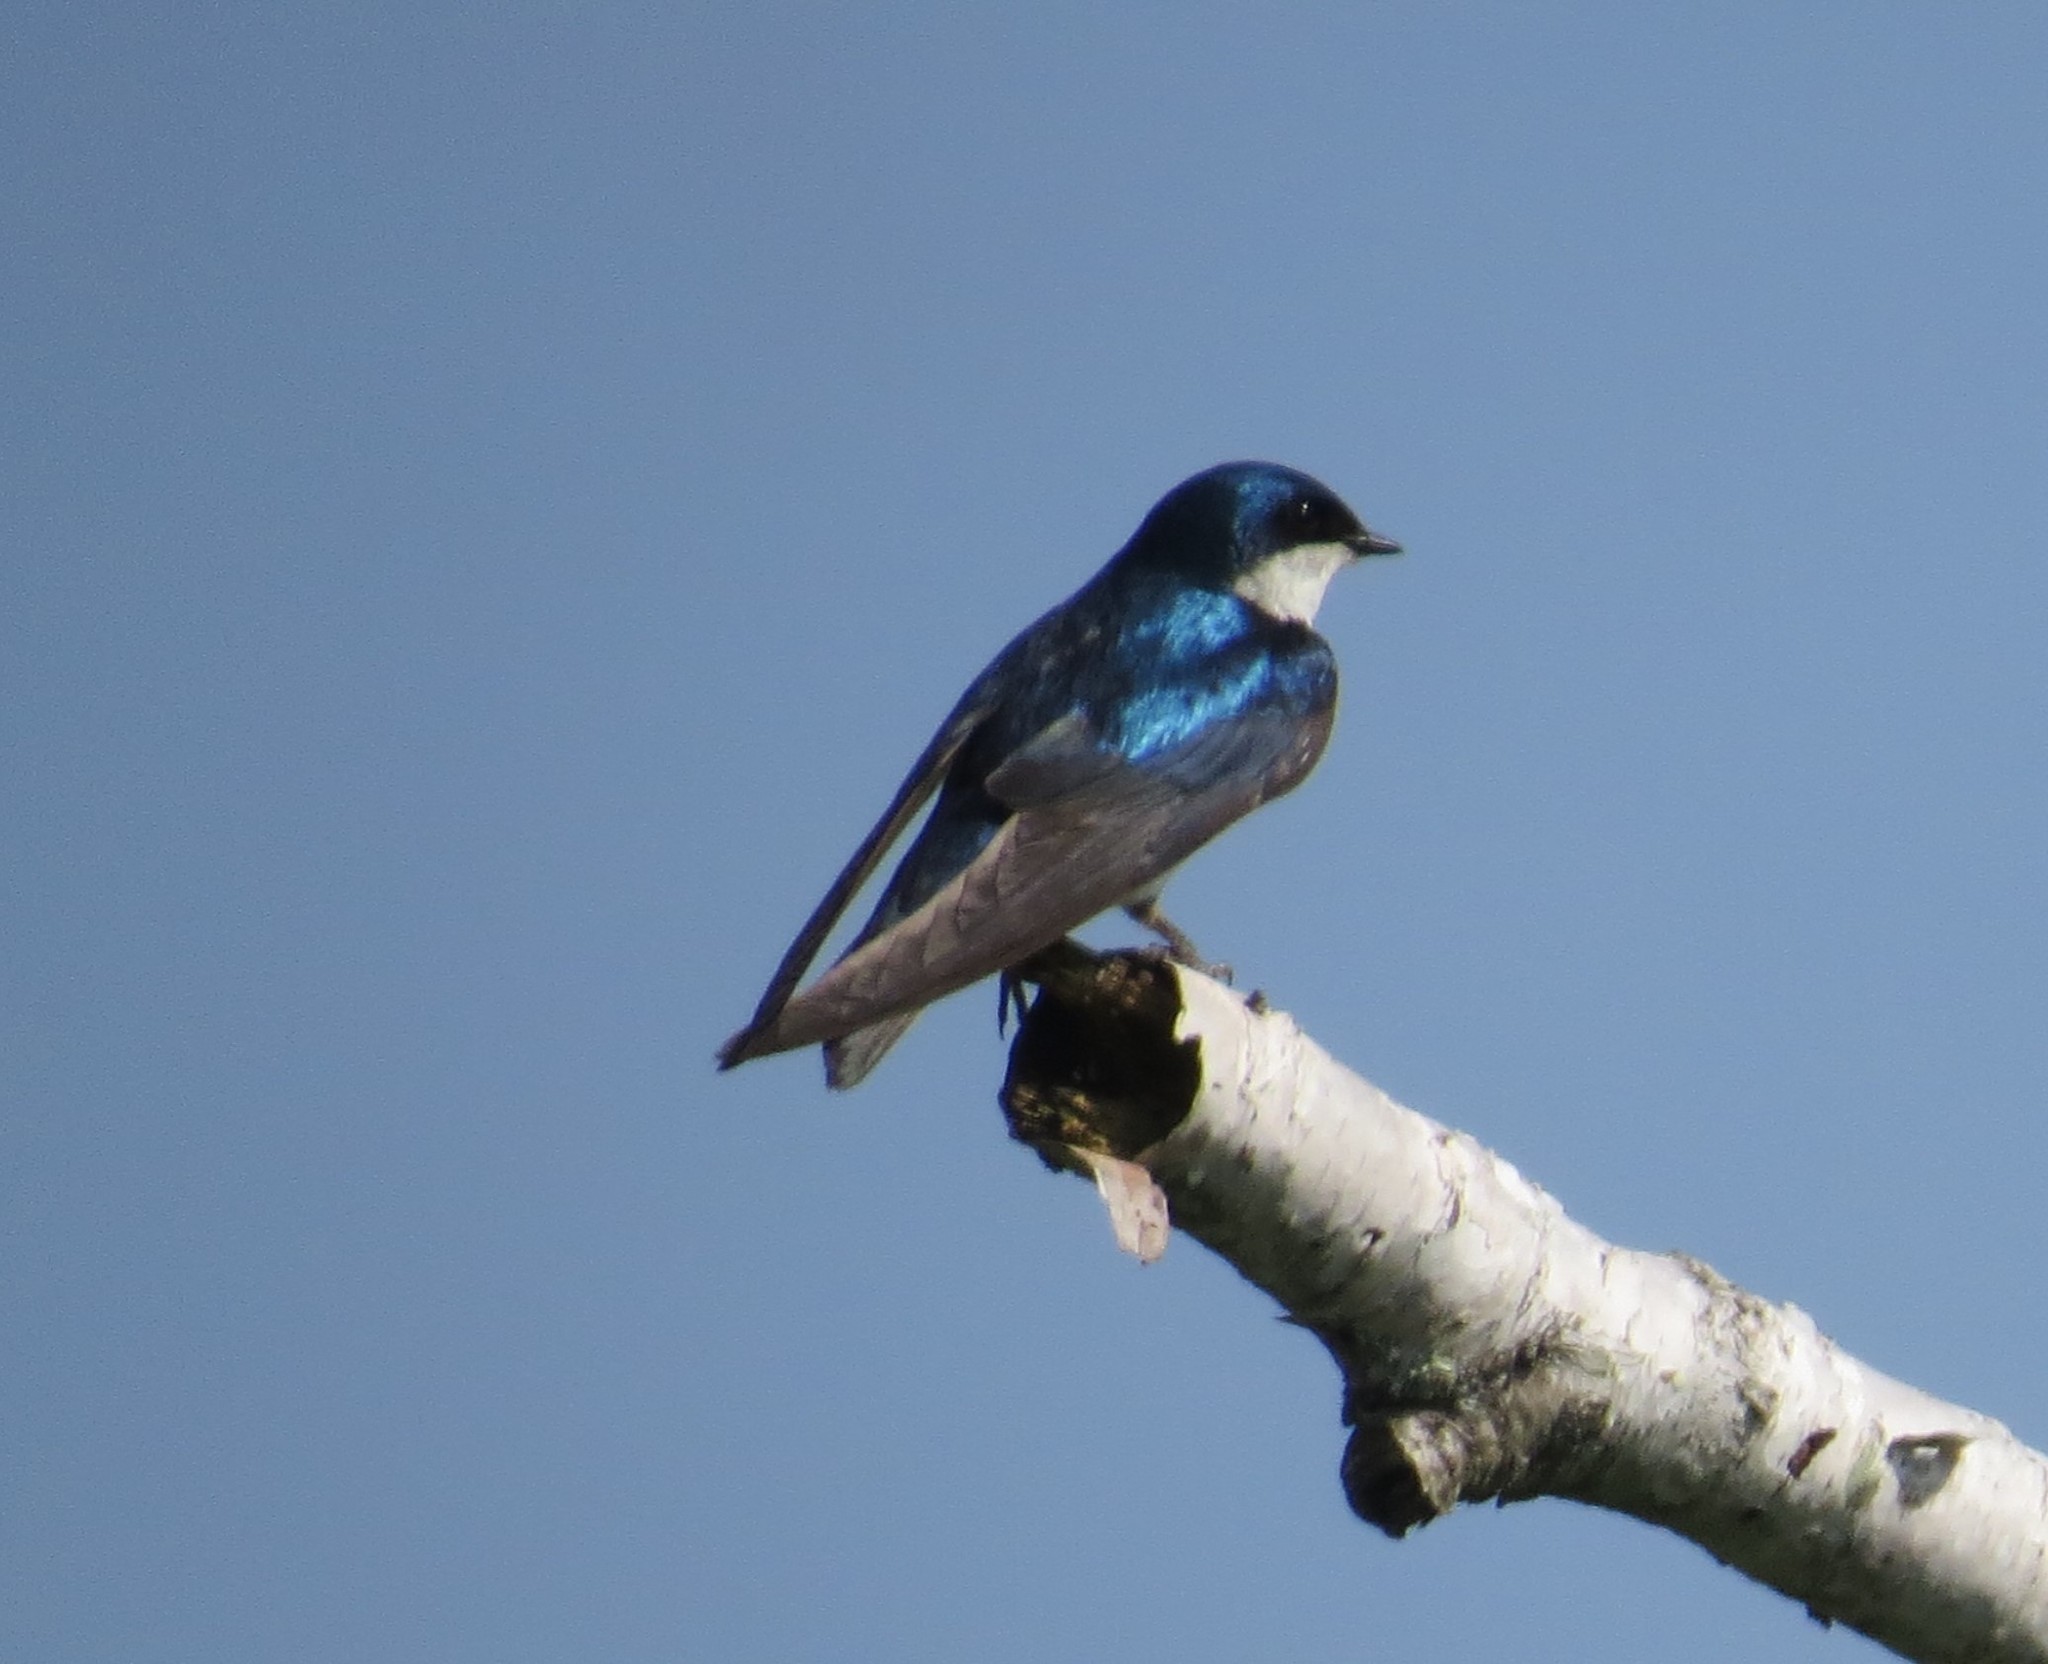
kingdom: Animalia
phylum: Chordata
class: Aves
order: Passeriformes
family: Hirundinidae
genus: Tachycineta
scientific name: Tachycineta bicolor
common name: Tree swallow
